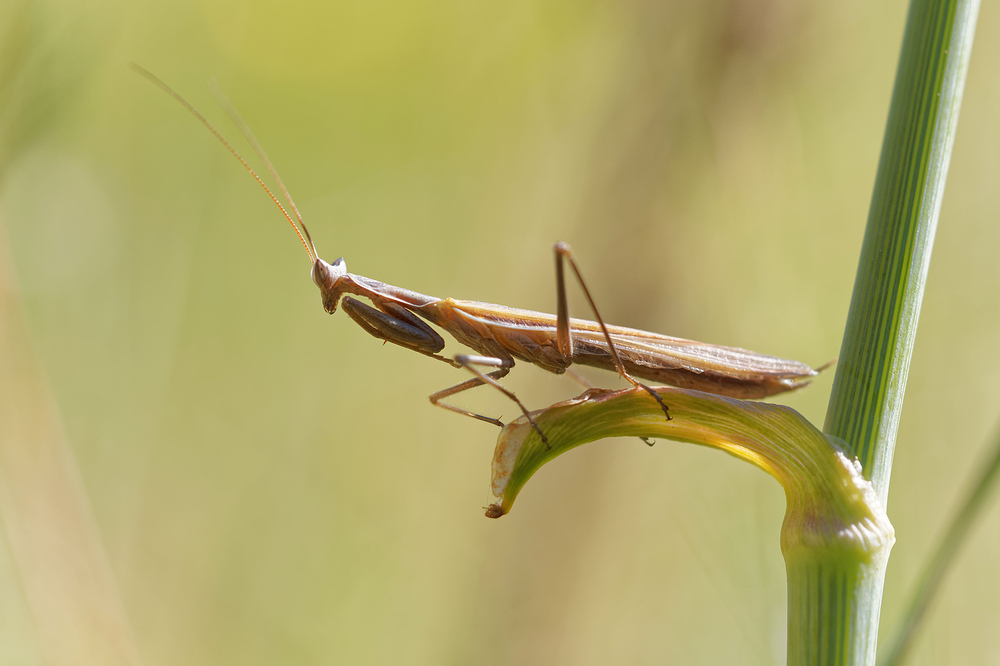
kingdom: Animalia
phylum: Arthropoda
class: Insecta
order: Mantodea
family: Amelidae
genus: Ameles
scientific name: Ameles picteti
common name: Pictet's dwarf mantis
